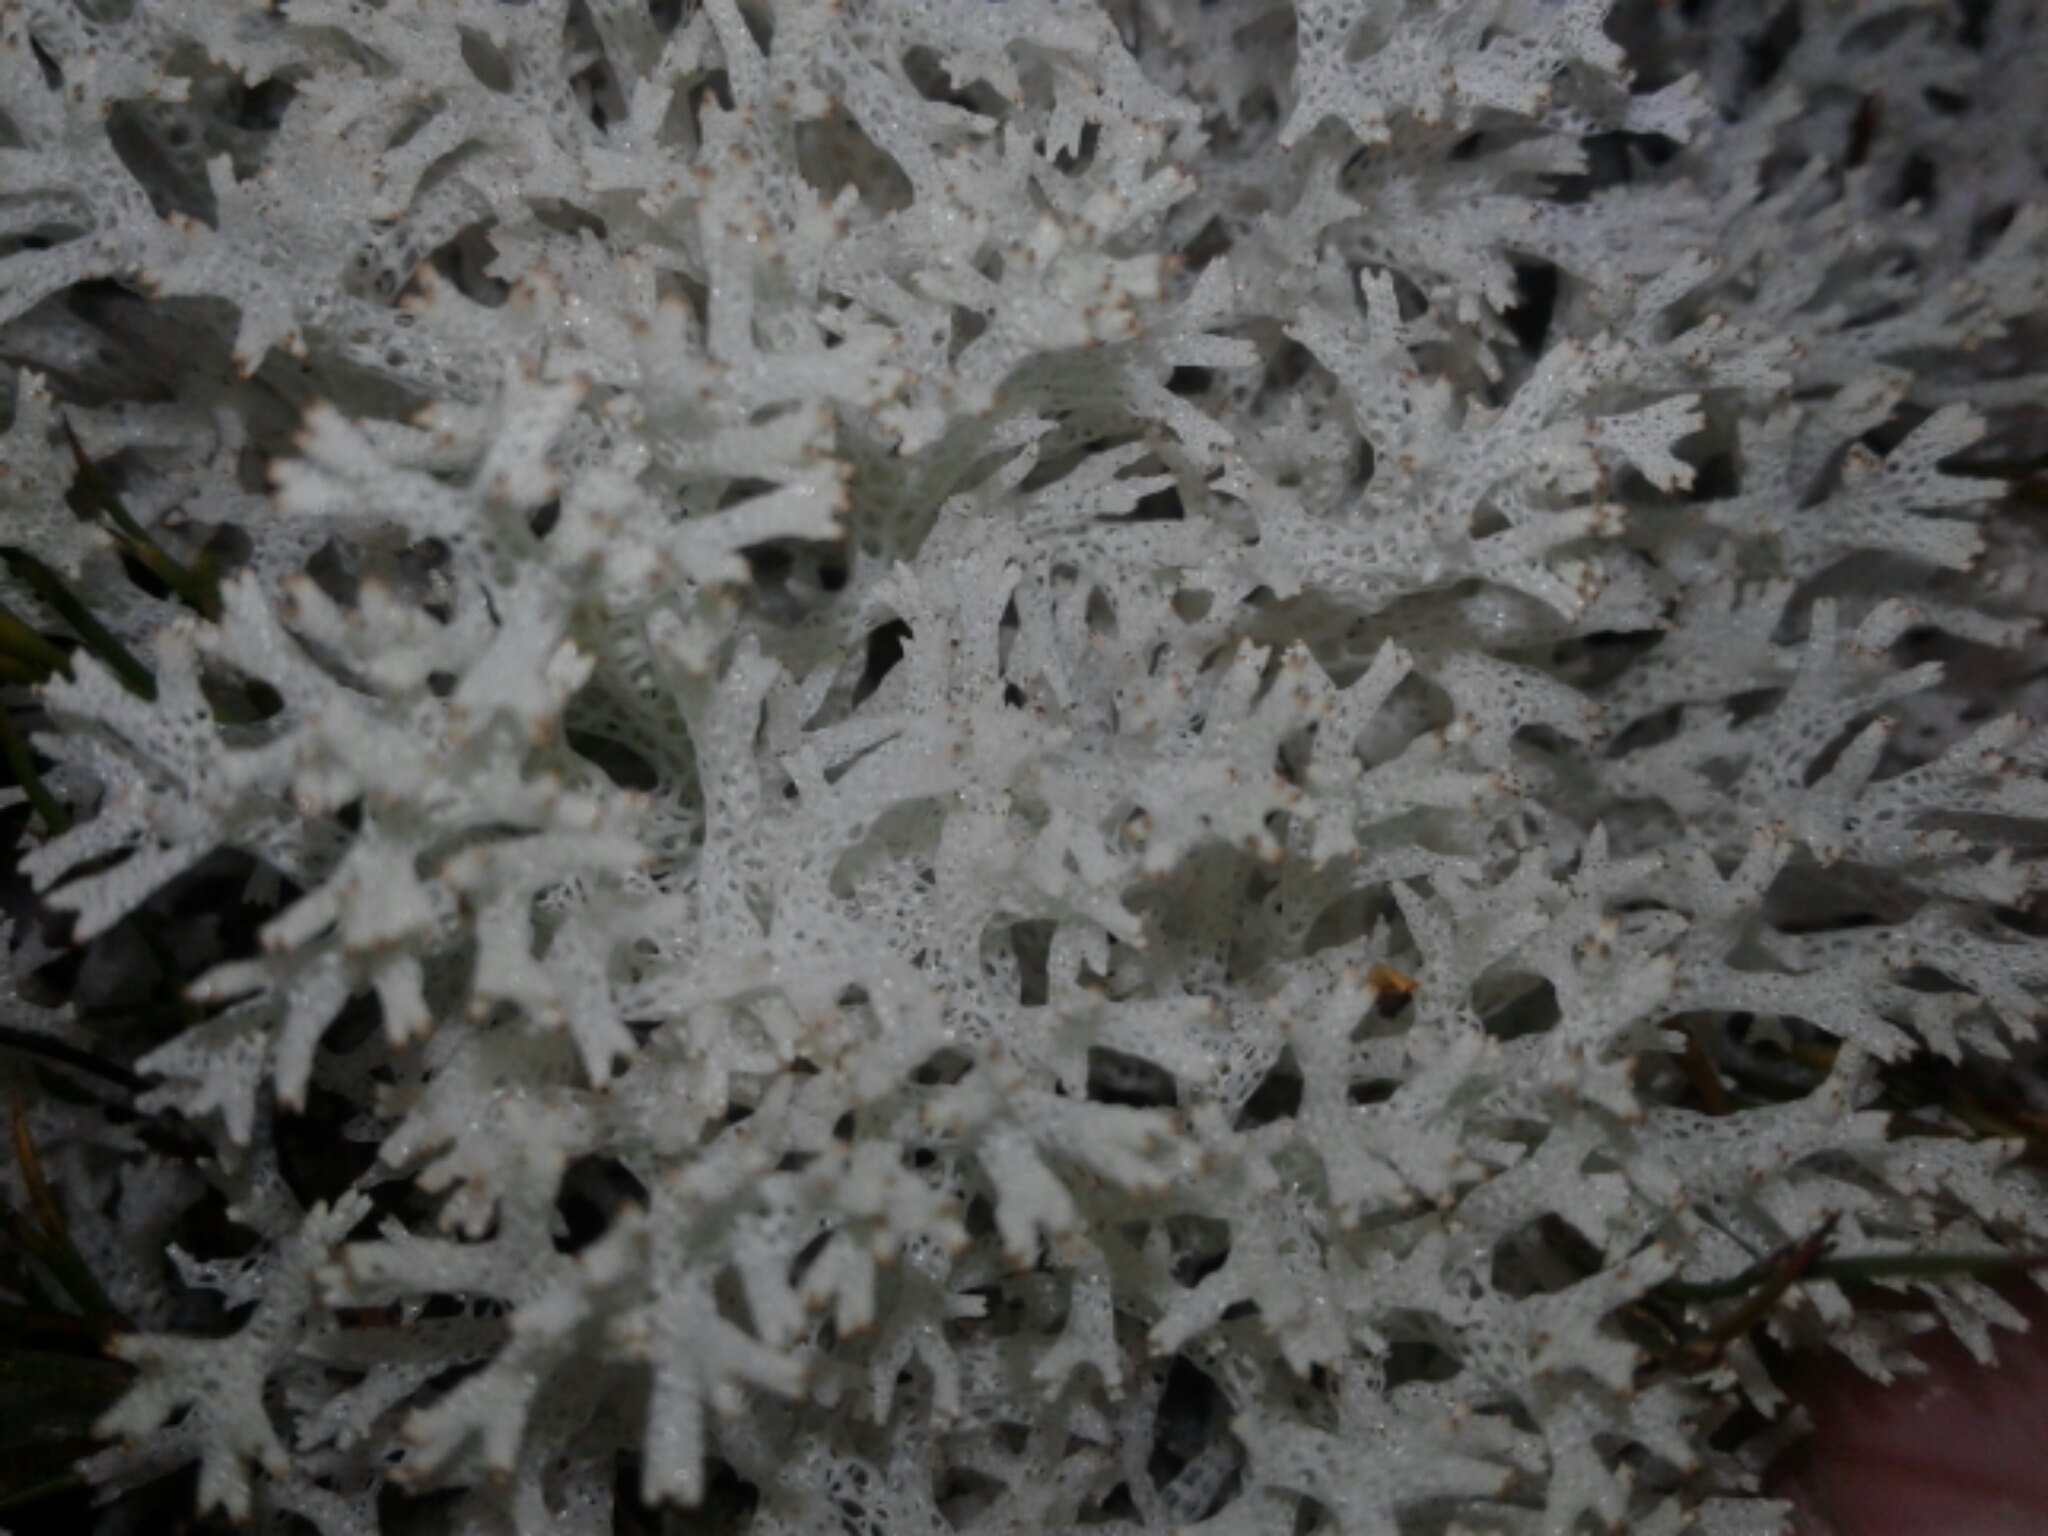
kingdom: Fungi
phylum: Ascomycota
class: Lecanoromycetes
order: Lecanorales
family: Cladoniaceae
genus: Pulchrocladia
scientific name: Pulchrocladia retipora
